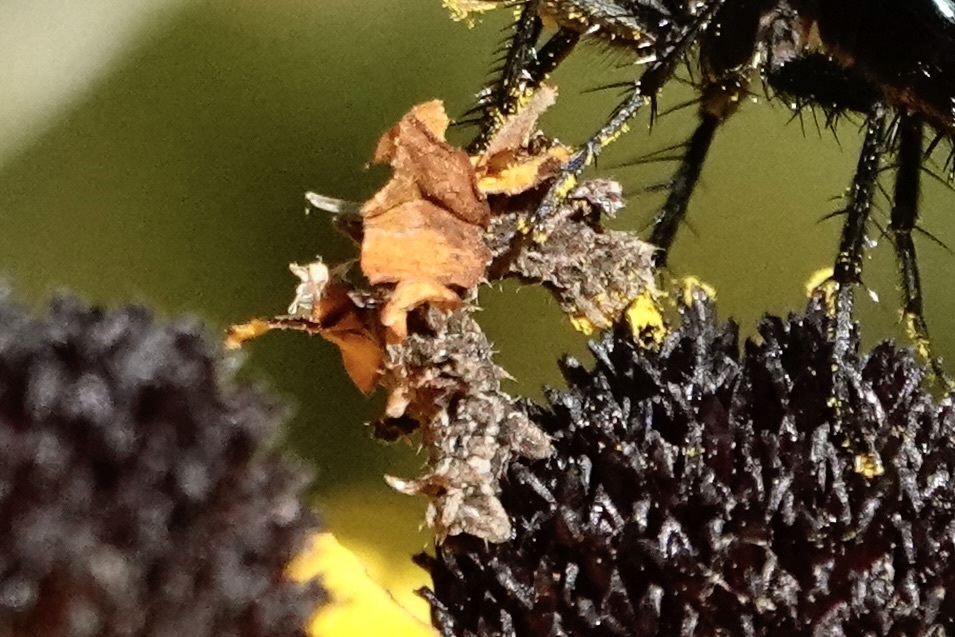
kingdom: Animalia
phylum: Arthropoda
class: Insecta
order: Lepidoptera
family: Geometridae
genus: Synchlora
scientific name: Synchlora
